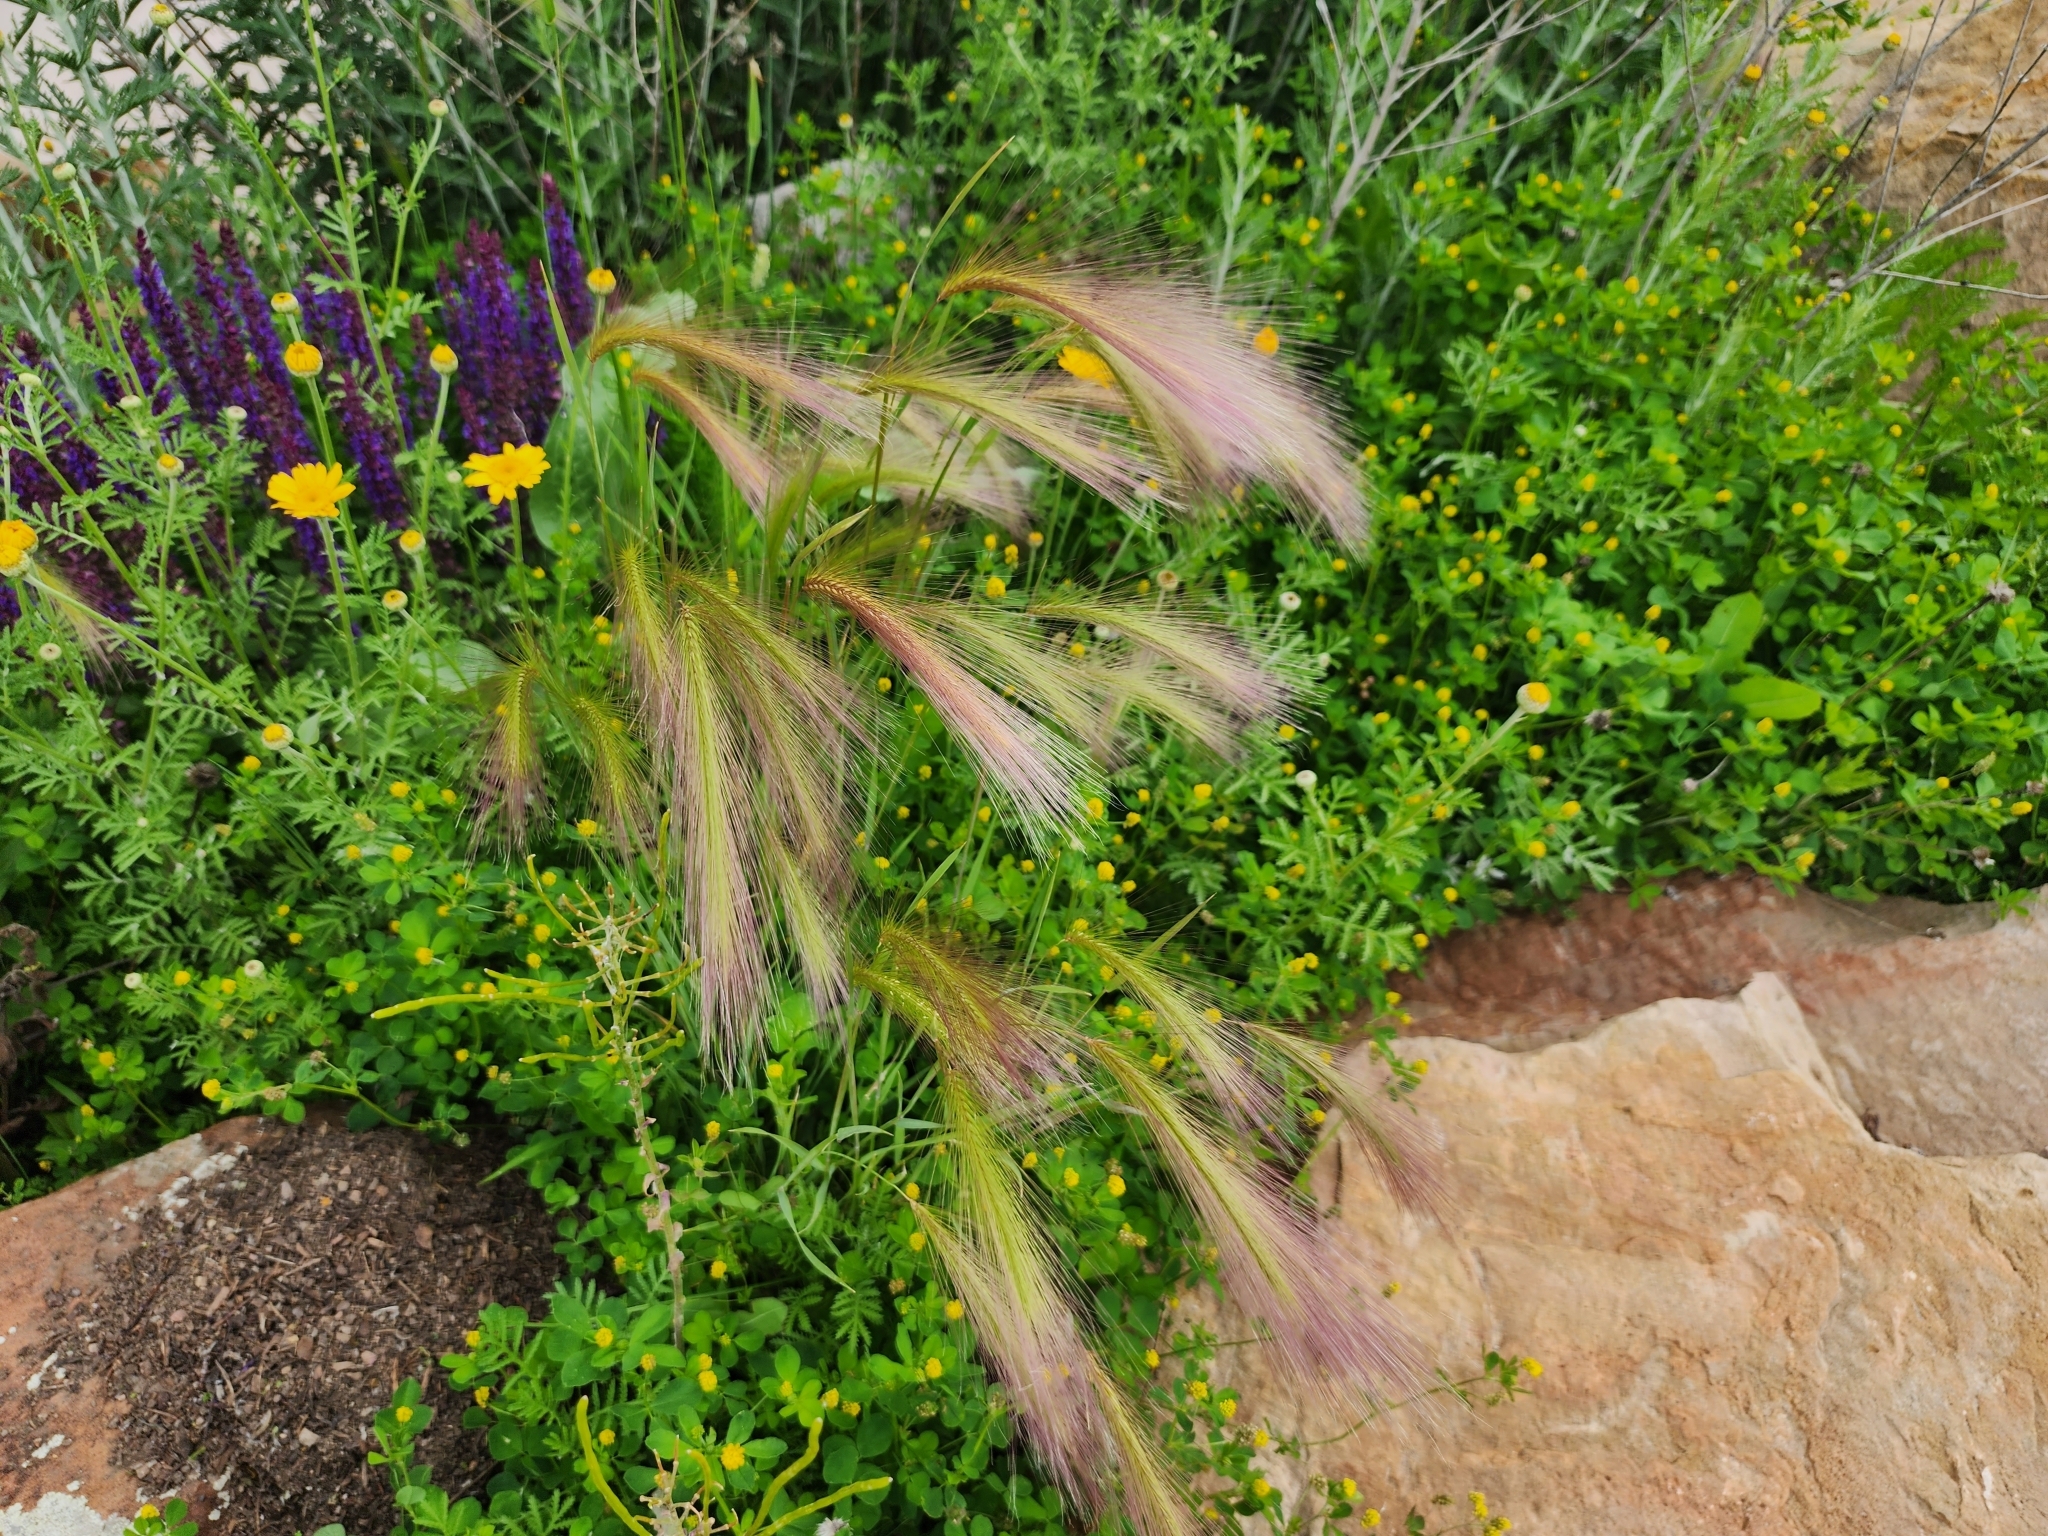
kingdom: Plantae
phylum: Tracheophyta
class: Liliopsida
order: Poales
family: Poaceae
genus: Hordeum
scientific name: Hordeum jubatum
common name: Foxtail barley
